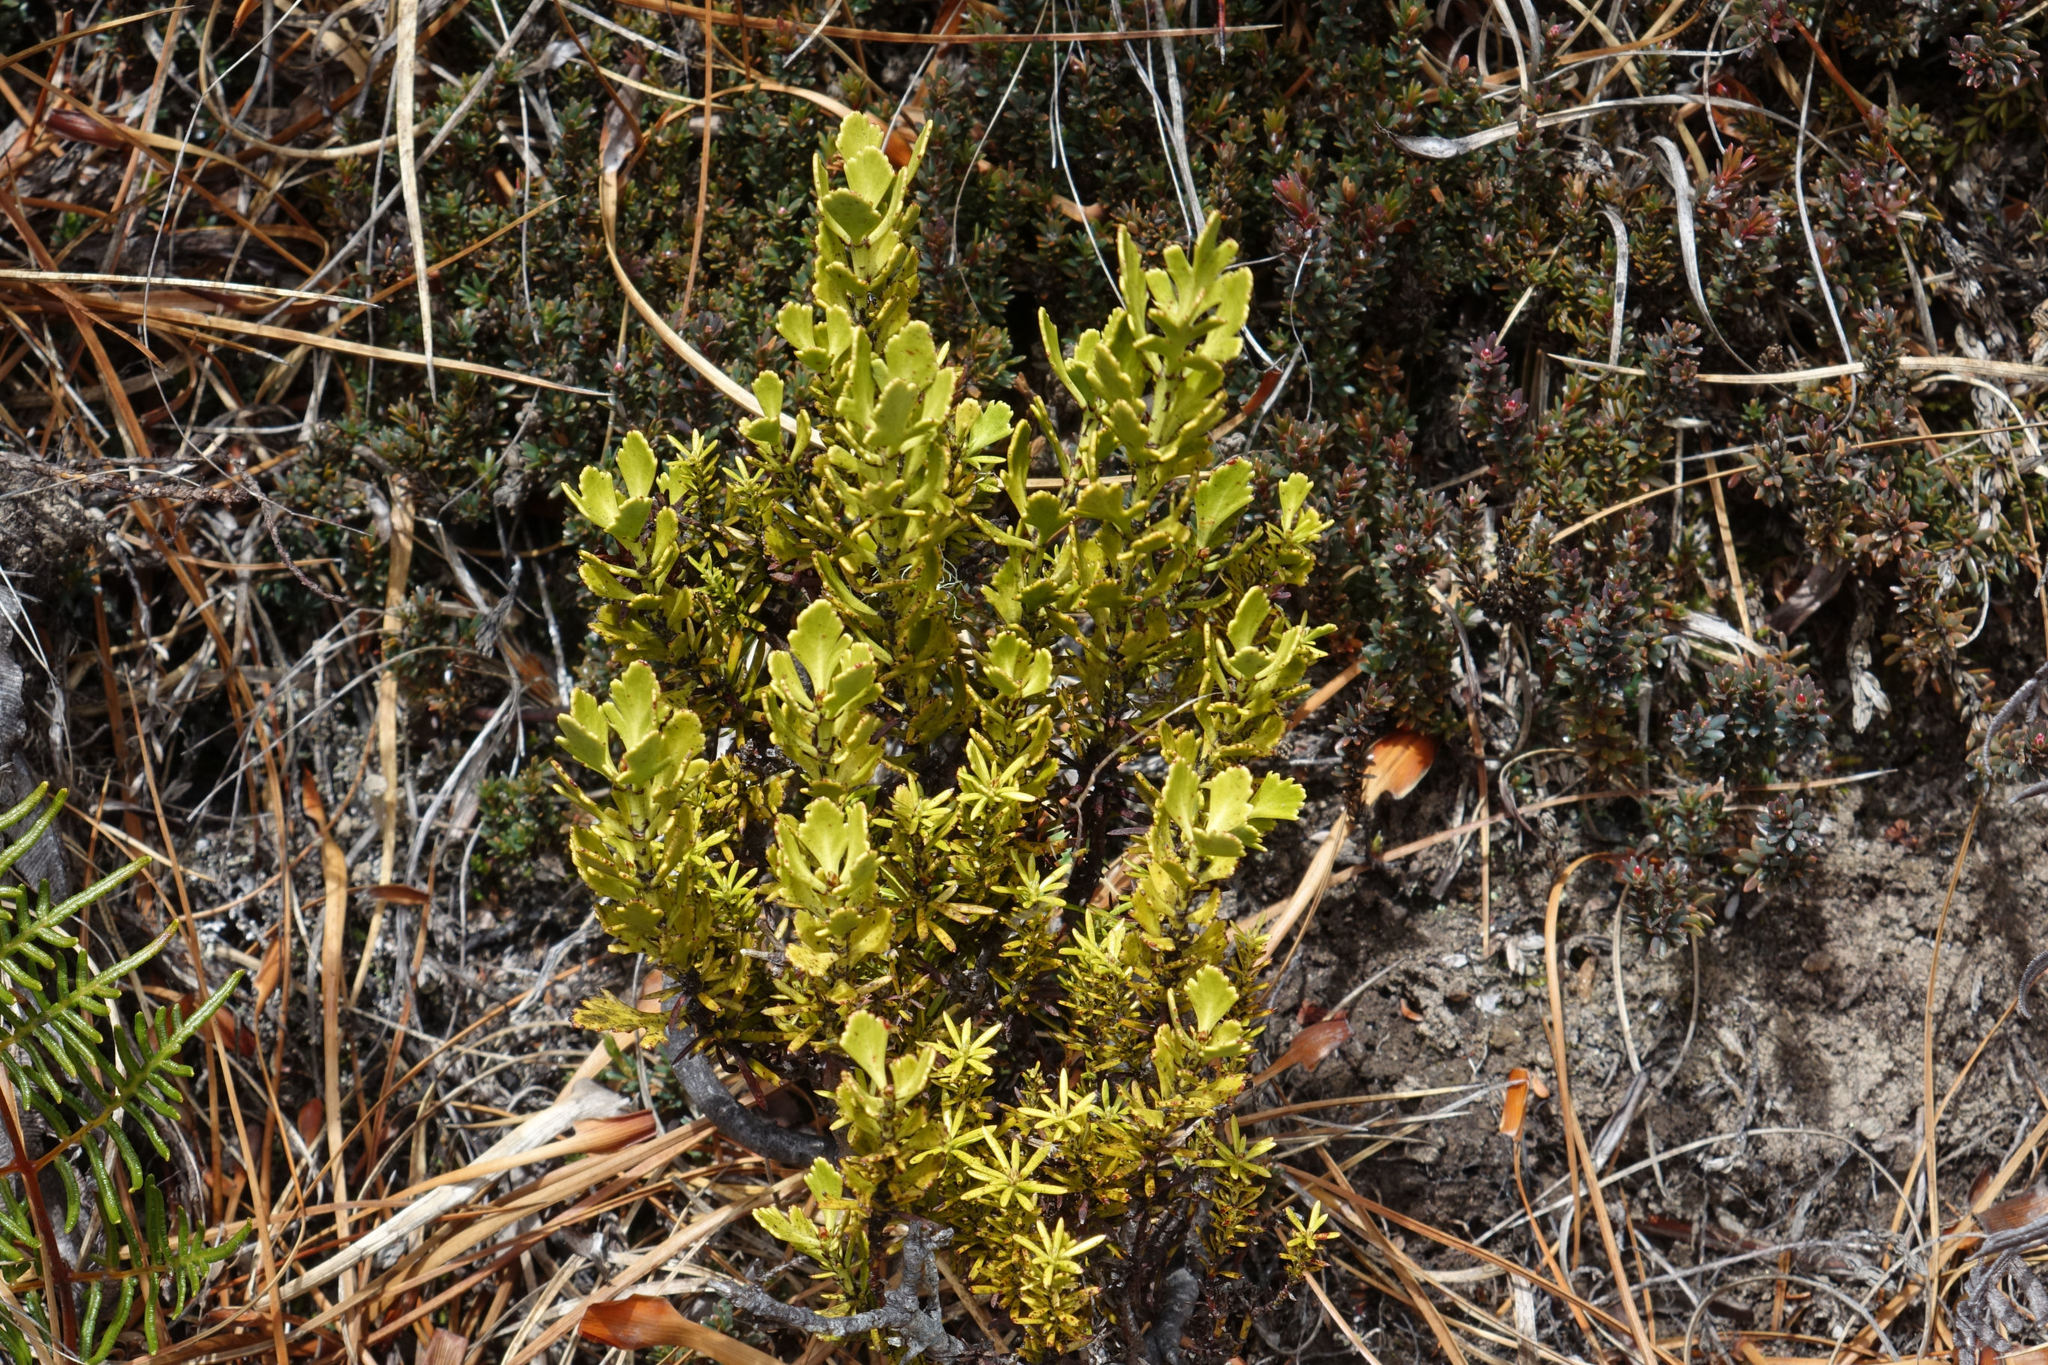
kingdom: Plantae
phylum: Tracheophyta
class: Pinopsida
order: Pinales
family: Phyllocladaceae
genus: Phyllocladus
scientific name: Phyllocladus trichomanoides
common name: Celery pine
